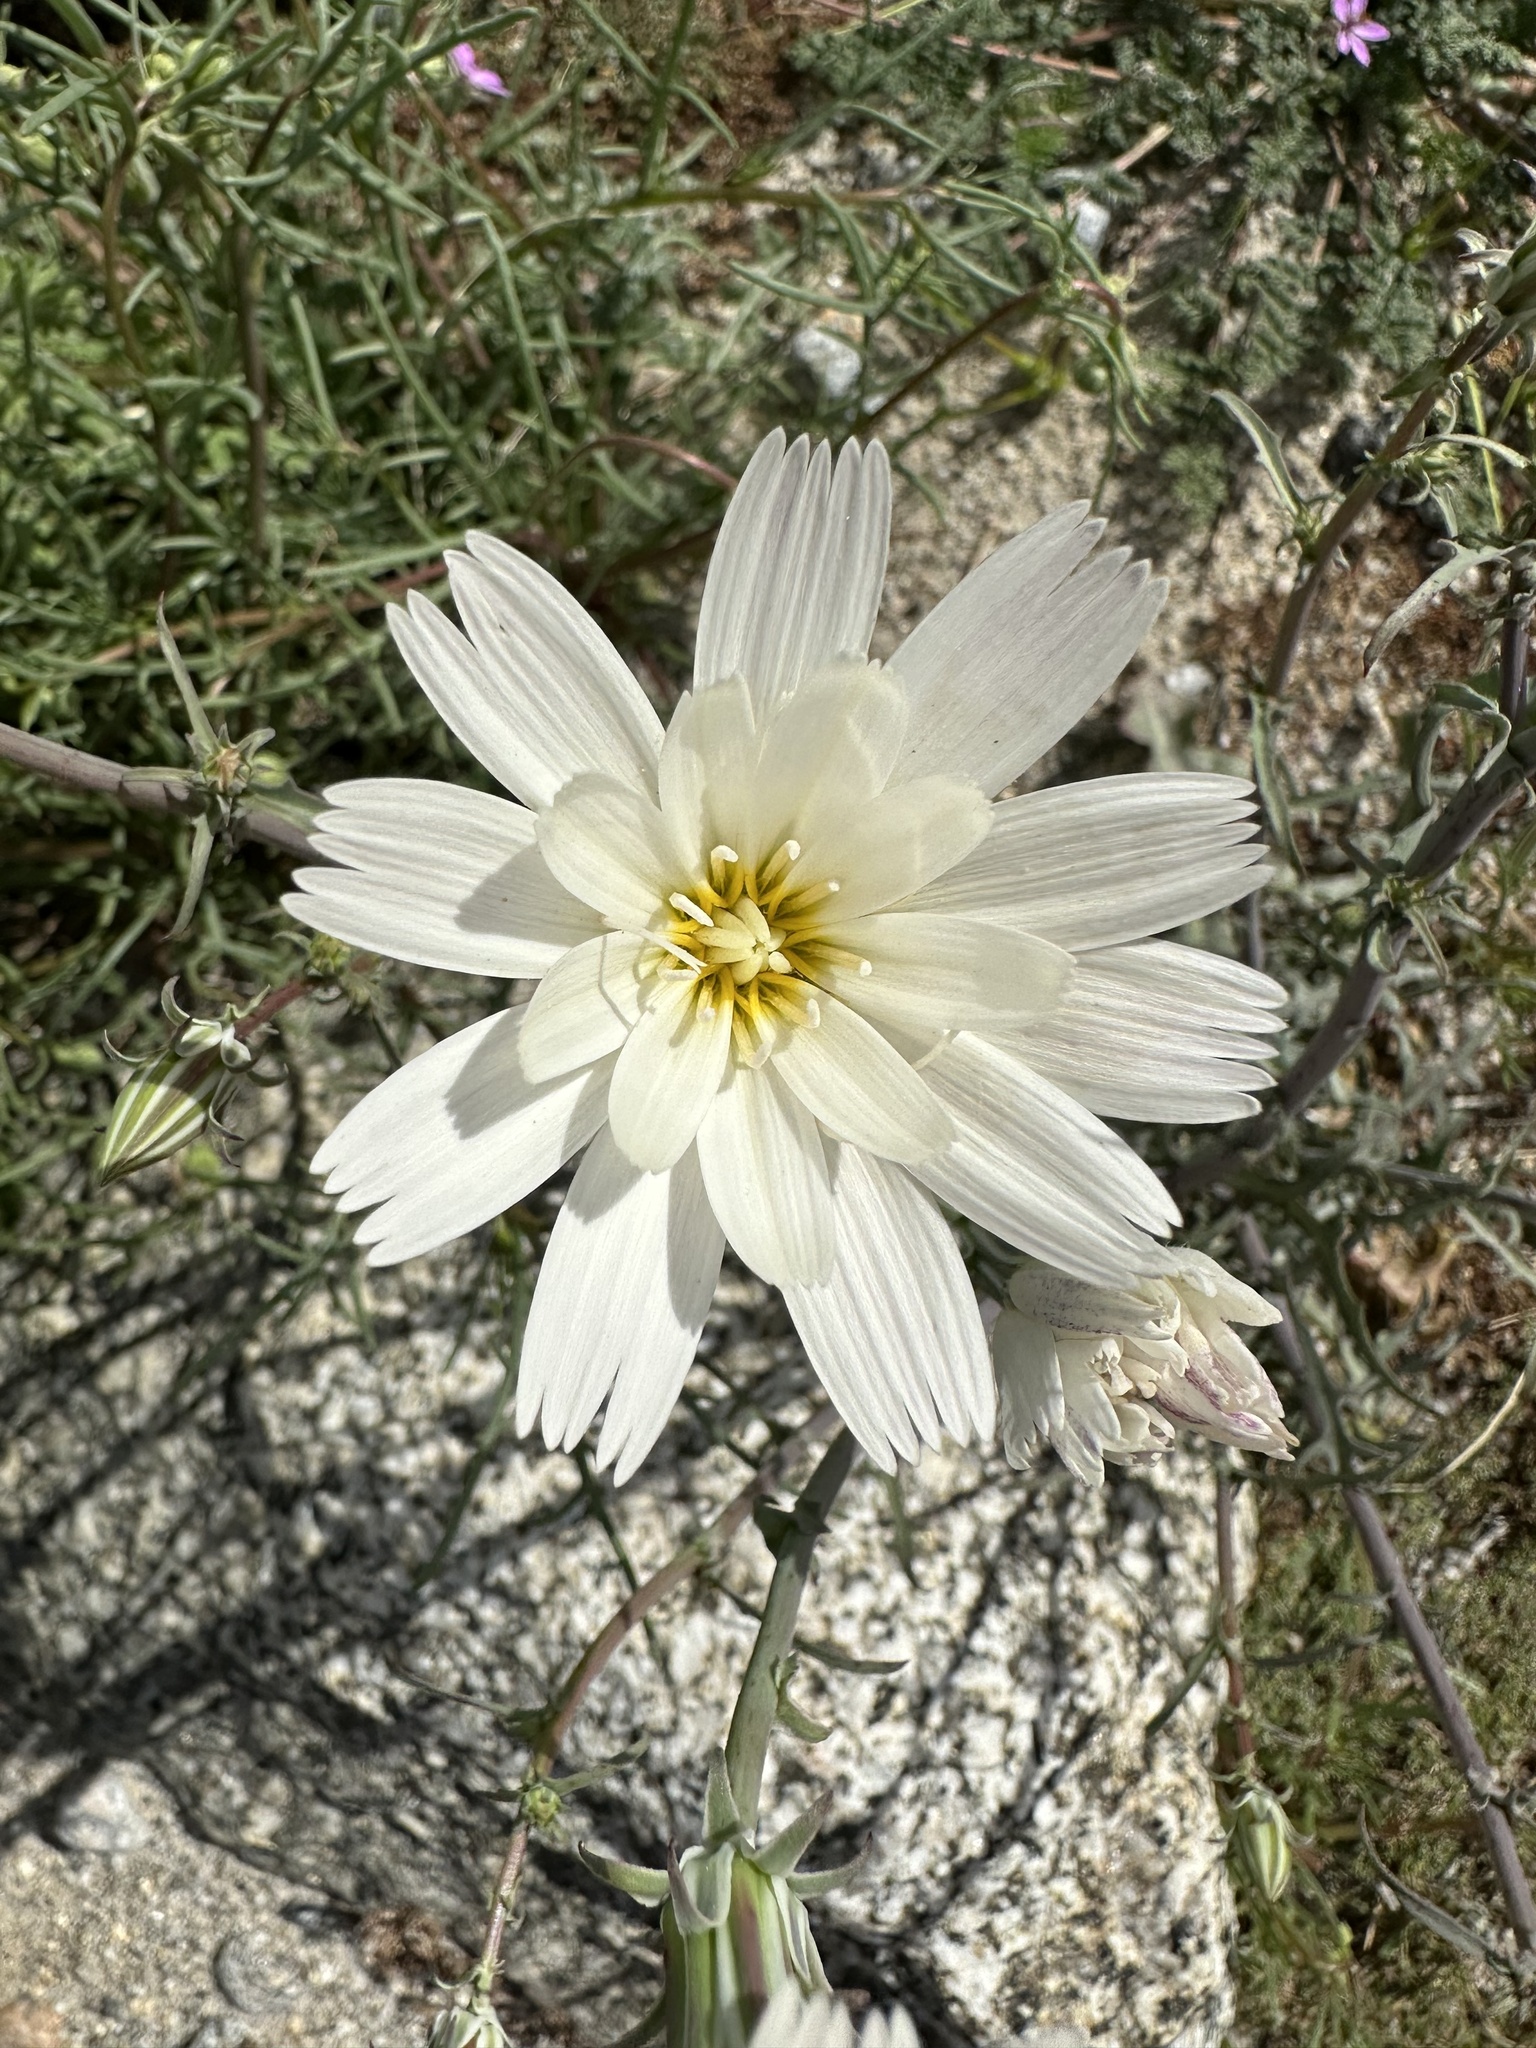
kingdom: Plantae
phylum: Tracheophyta
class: Magnoliopsida
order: Asterales
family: Asteraceae
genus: Rafinesquia
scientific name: Rafinesquia neomexicana
